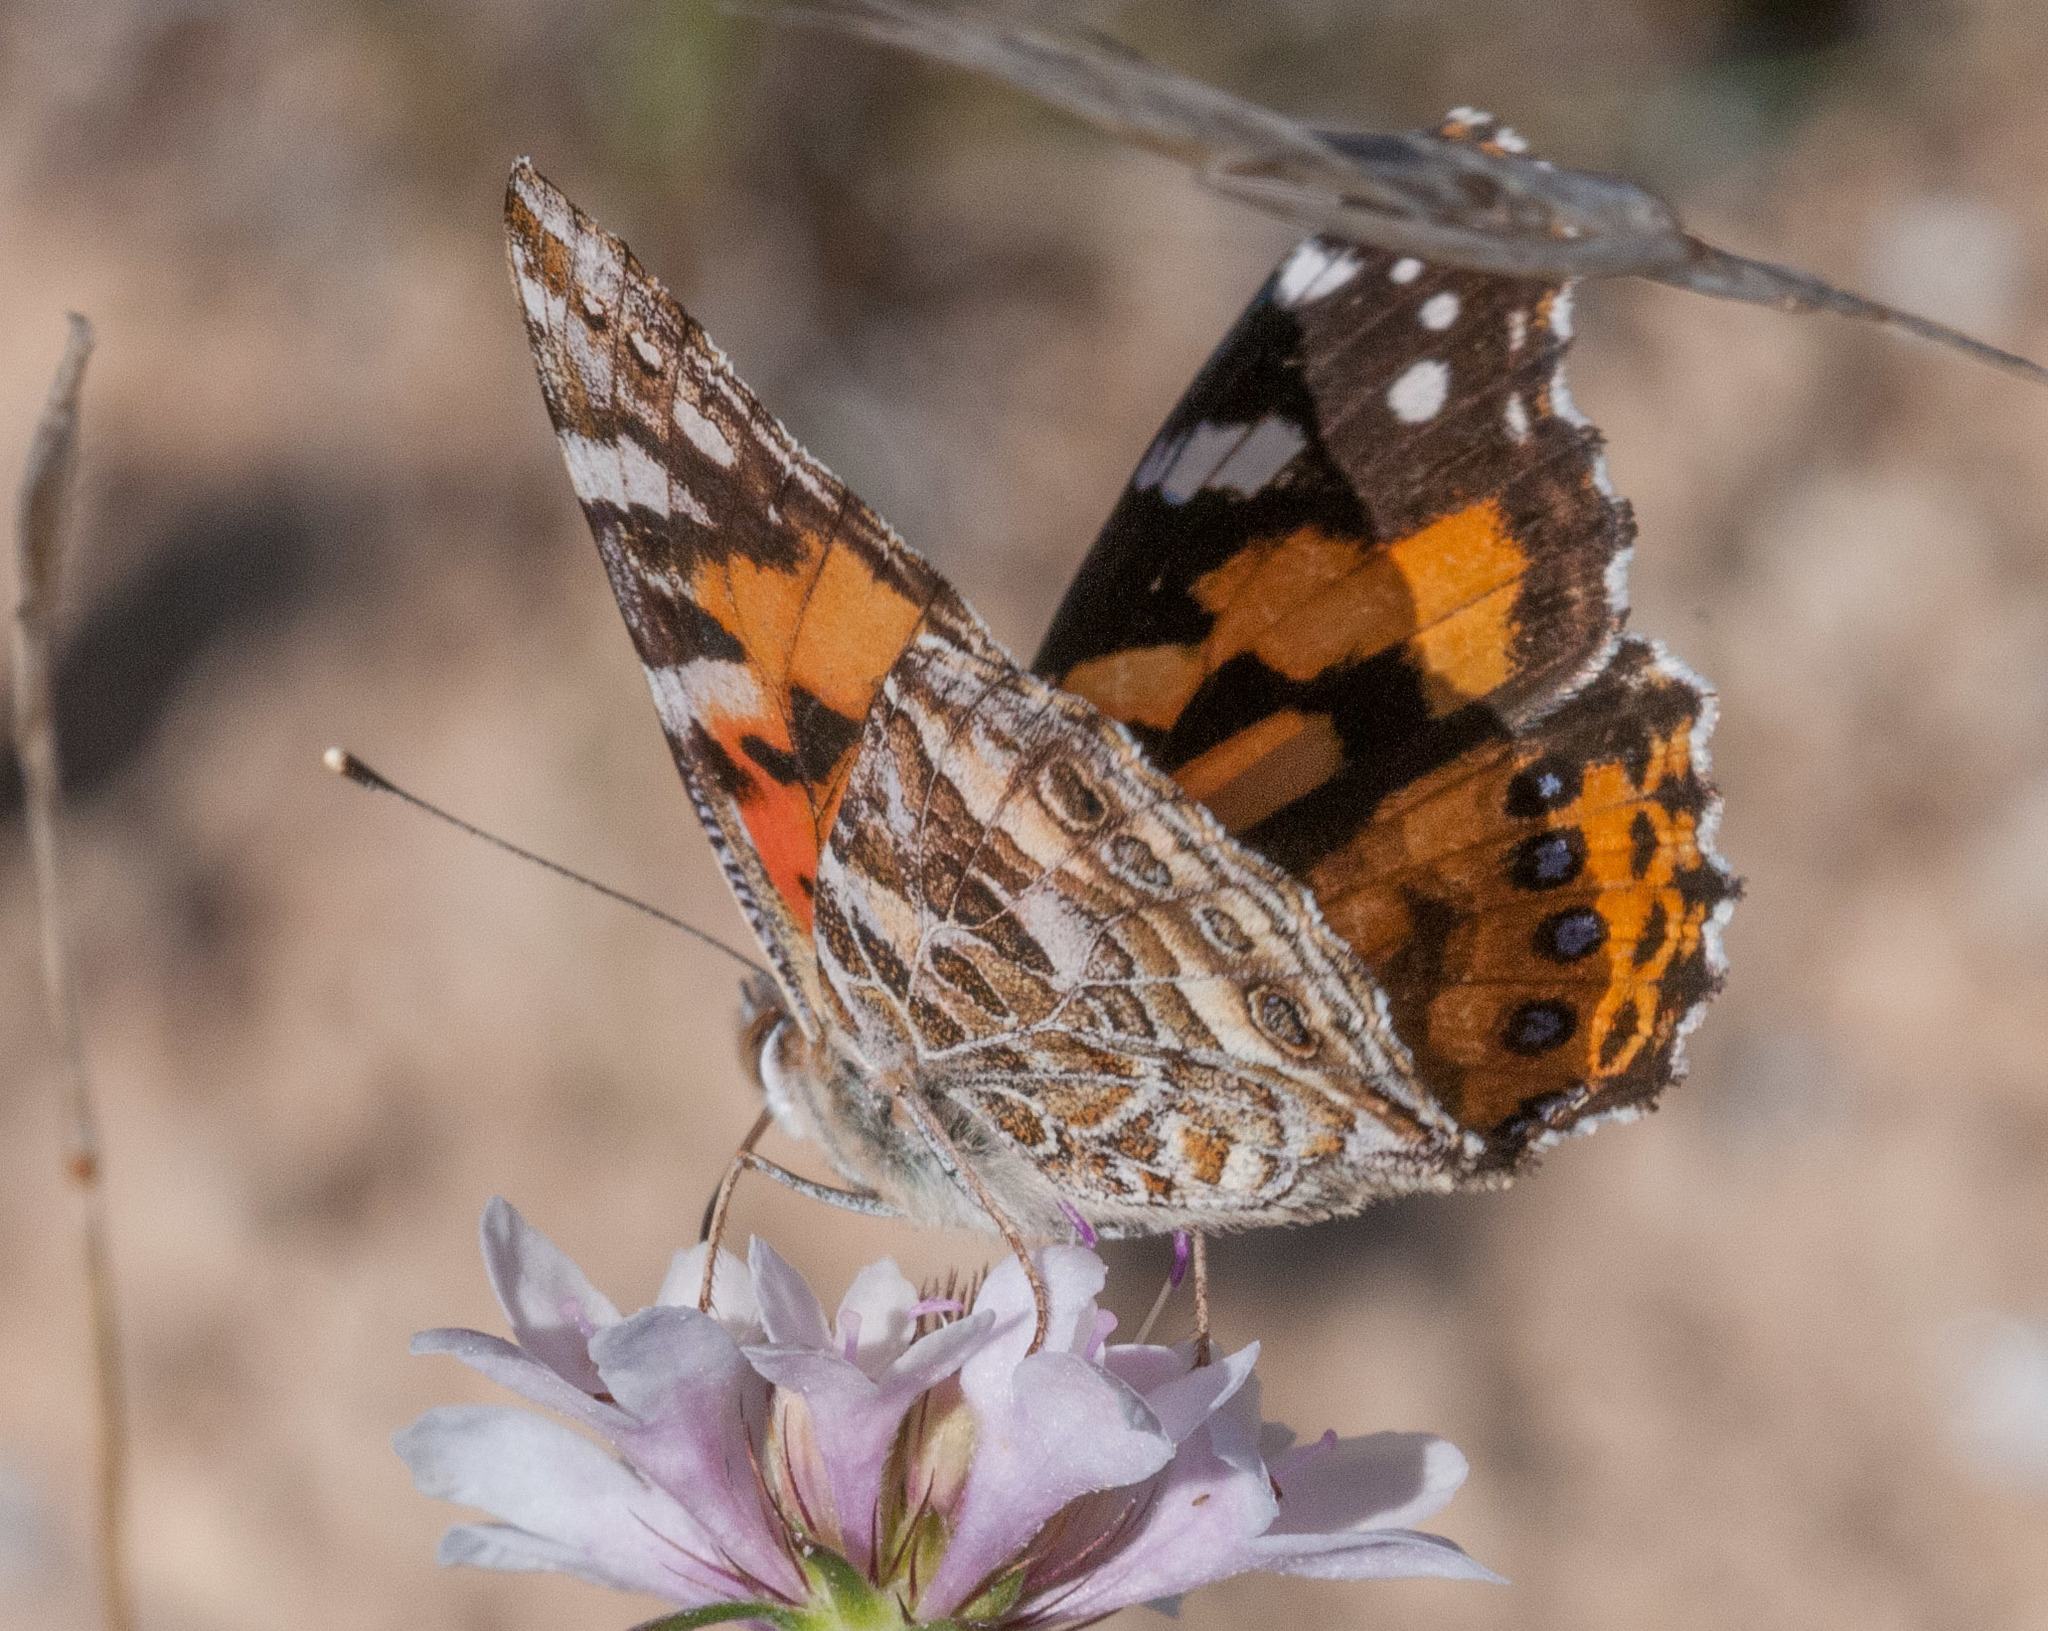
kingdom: Animalia
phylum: Arthropoda
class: Insecta
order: Lepidoptera
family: Nymphalidae
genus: Vanessa
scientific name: Vanessa kershawi
